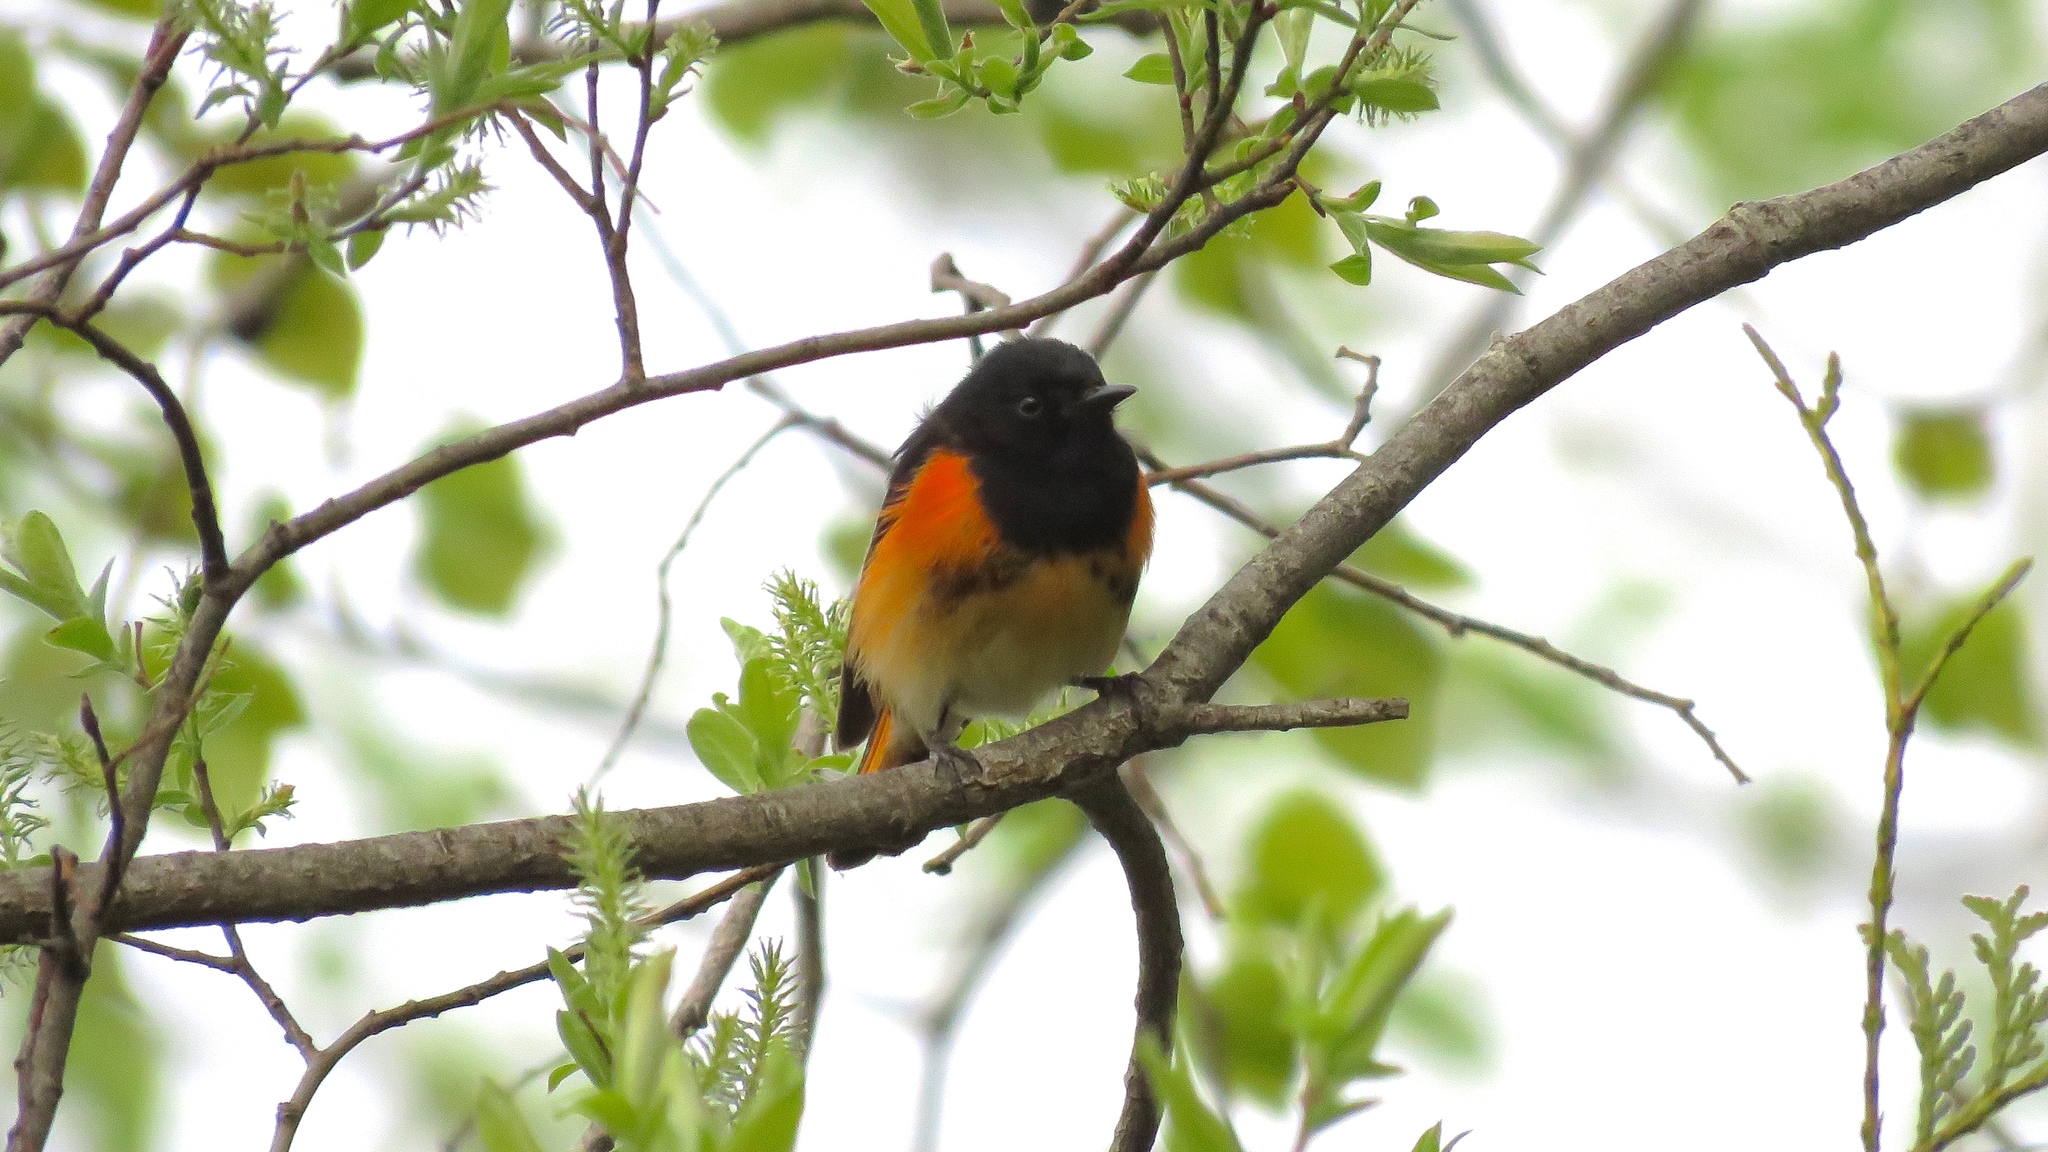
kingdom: Animalia
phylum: Chordata
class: Aves
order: Passeriformes
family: Parulidae
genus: Setophaga
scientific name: Setophaga ruticilla
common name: American redstart
